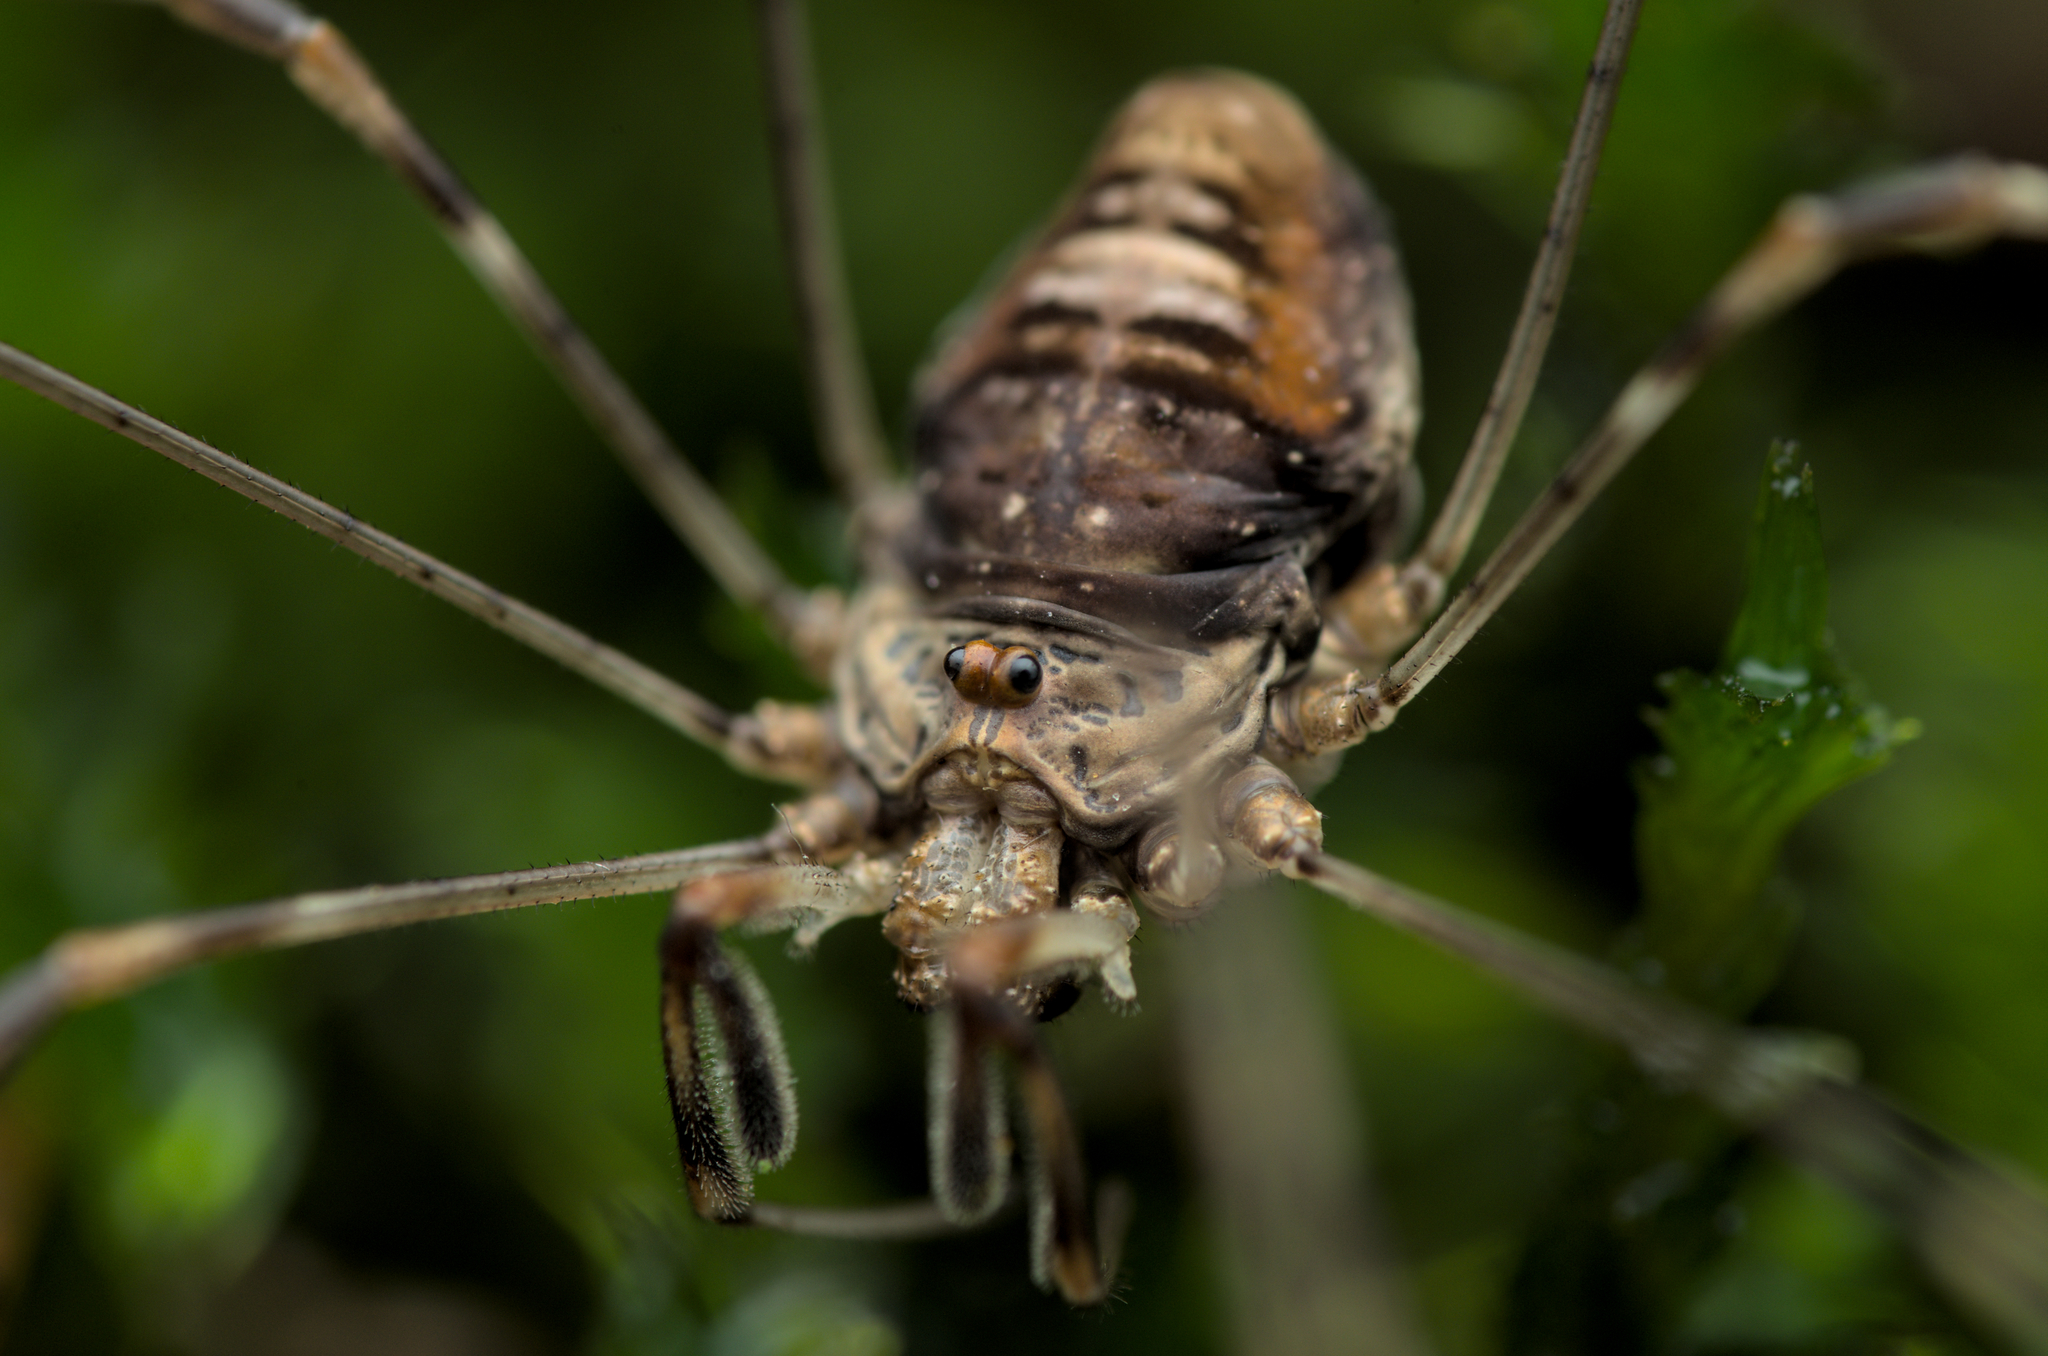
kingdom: Animalia
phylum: Arthropoda
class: Arachnida
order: Opiliones
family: Phalangiidae
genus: Dicranopalpus
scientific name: Dicranopalpus ramosus
